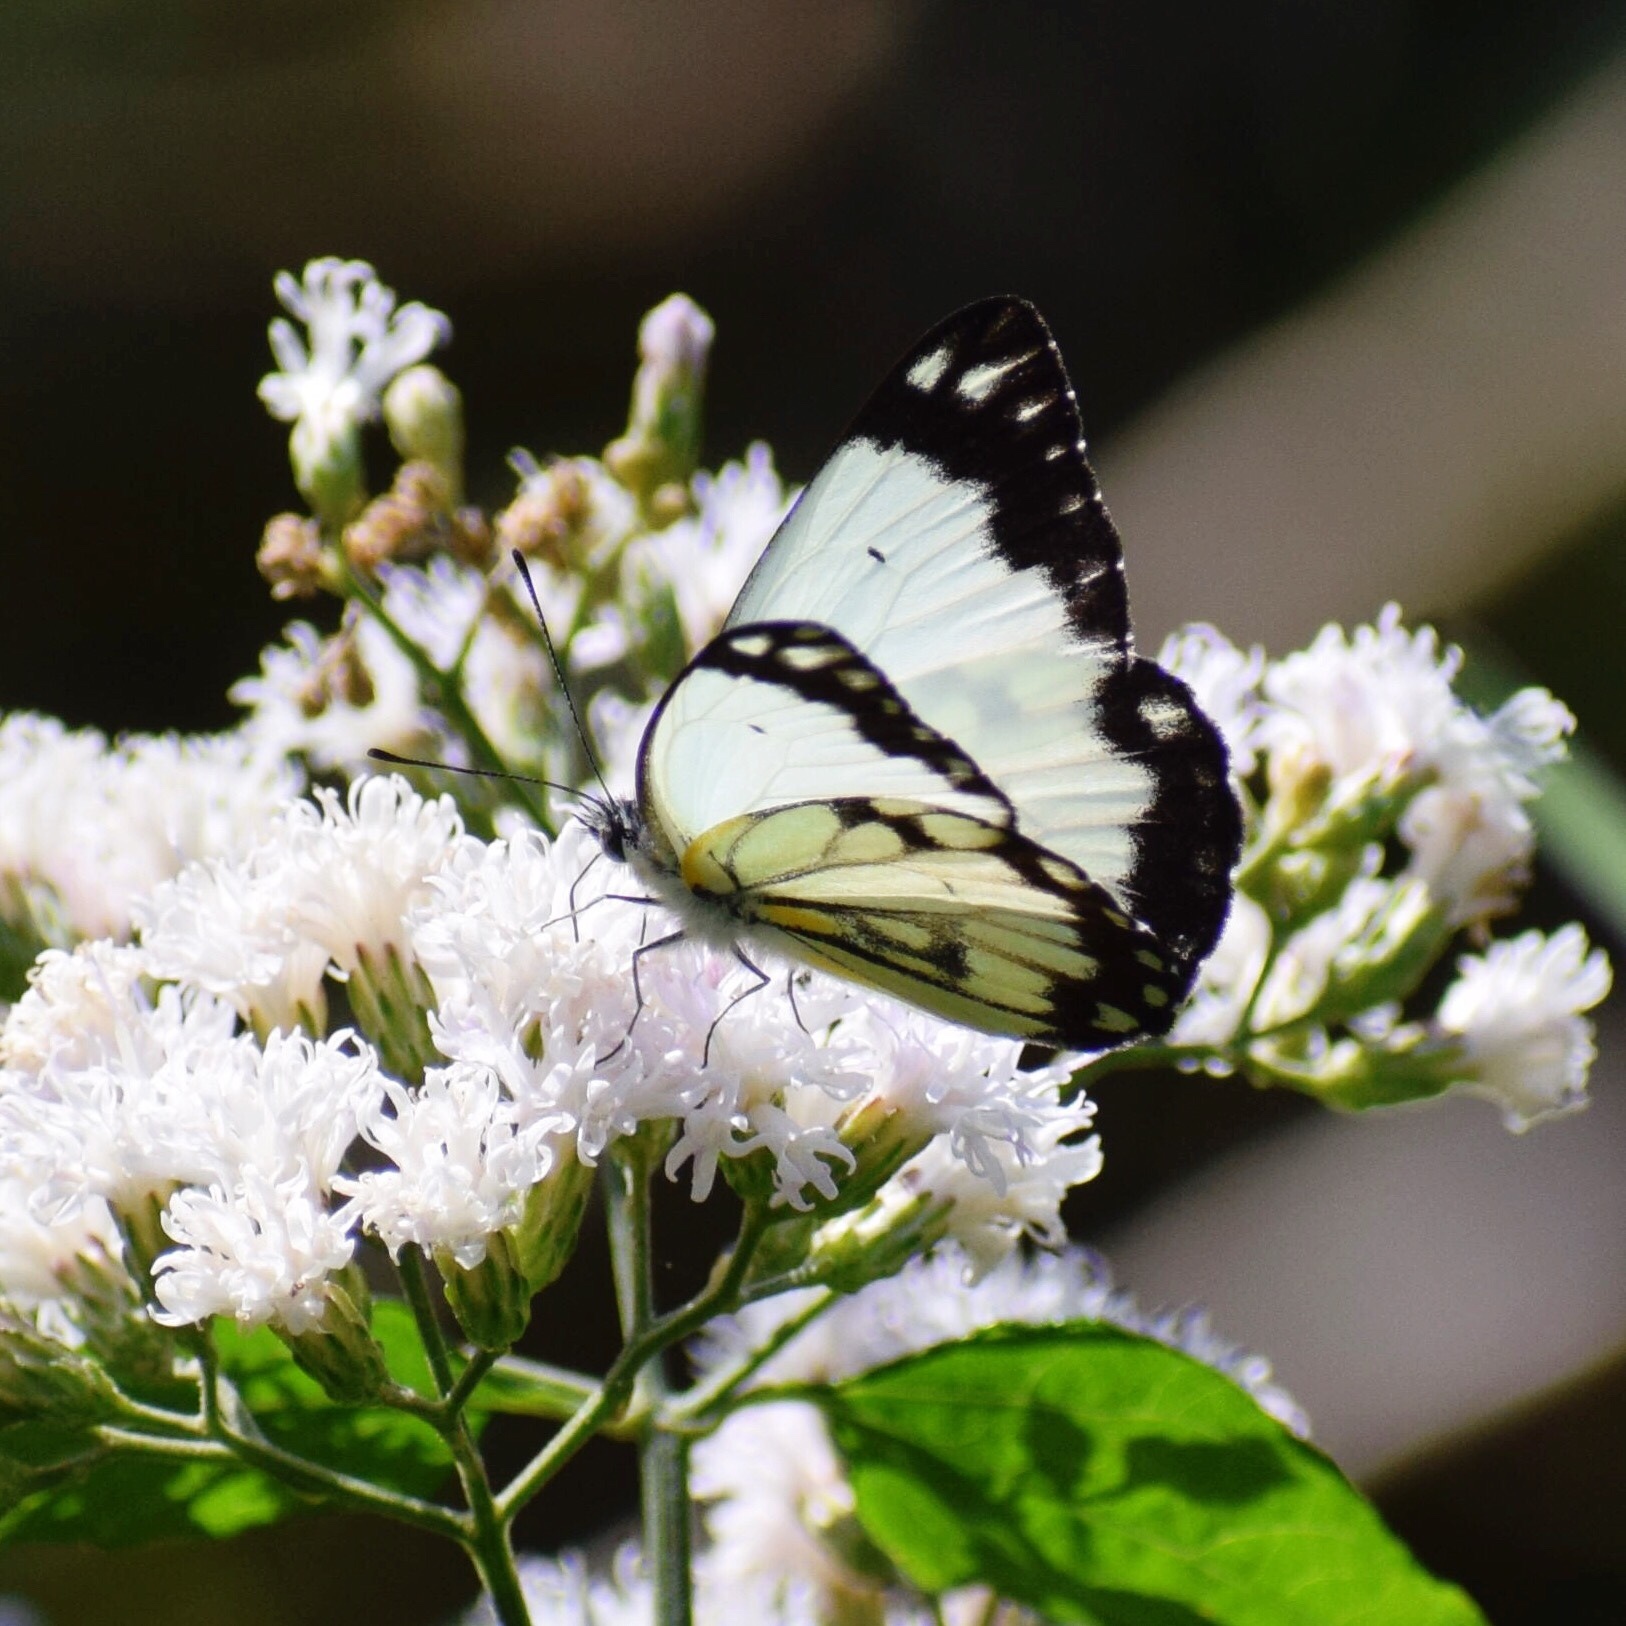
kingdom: Animalia
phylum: Arthropoda
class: Insecta
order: Lepidoptera
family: Pieridae
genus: Belenois
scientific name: Belenois creona
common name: African caper white
